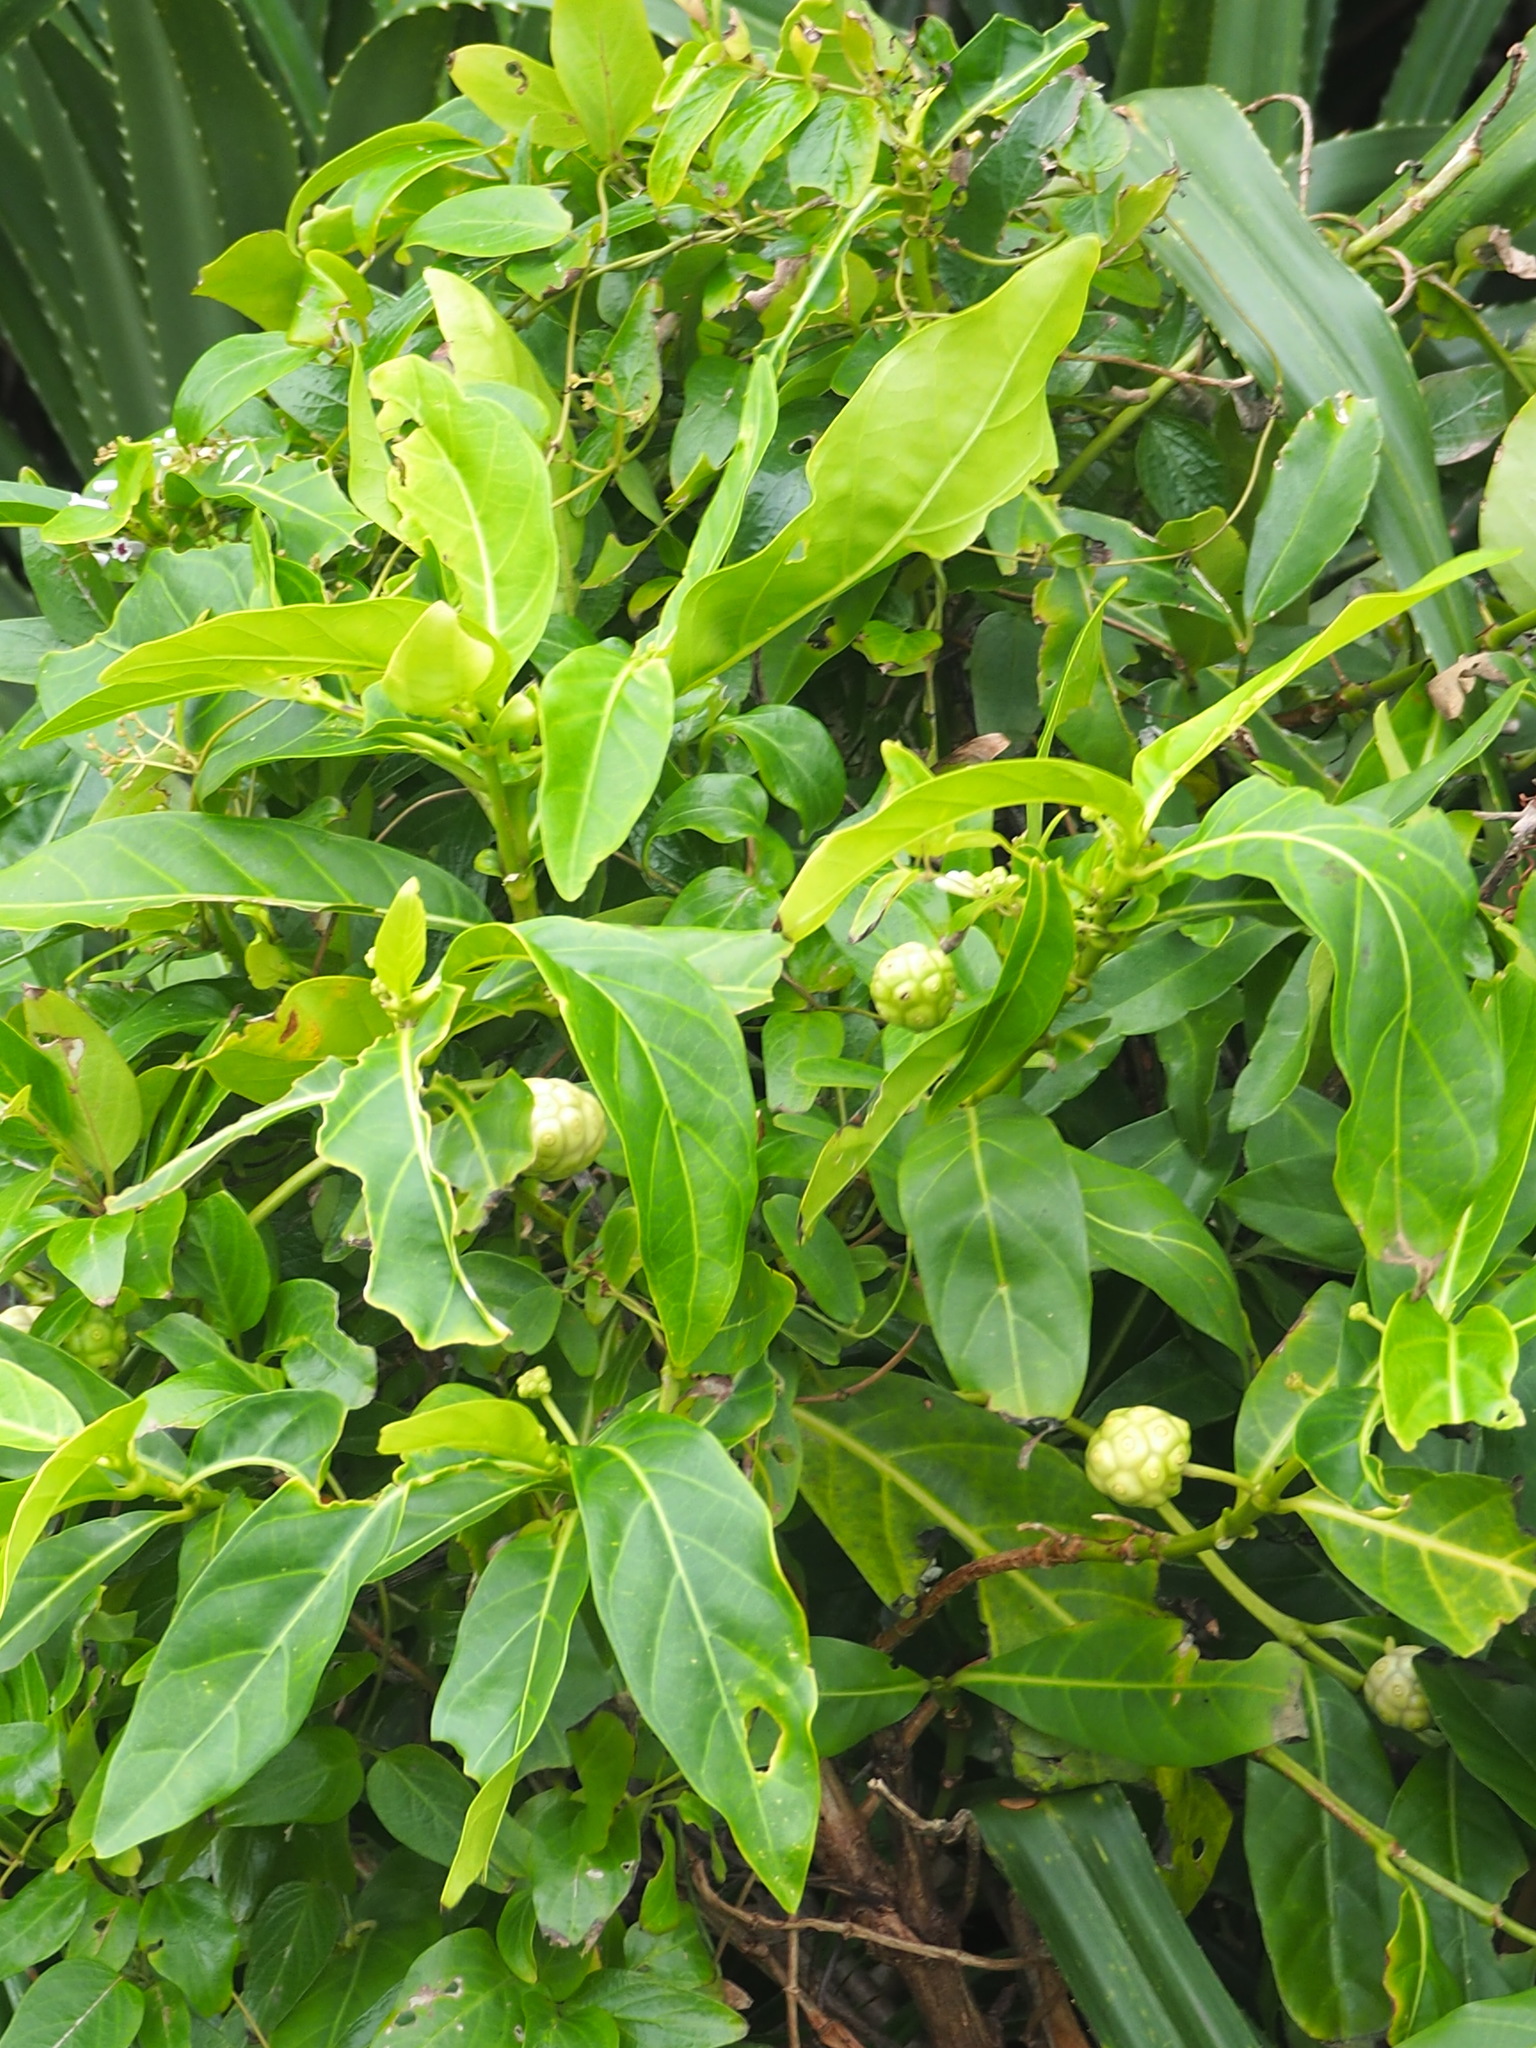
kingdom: Plantae
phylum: Tracheophyta
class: Magnoliopsida
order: Gentianales
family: Rubiaceae
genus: Morinda
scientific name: Morinda citrifolia
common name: Indian-mulberry
